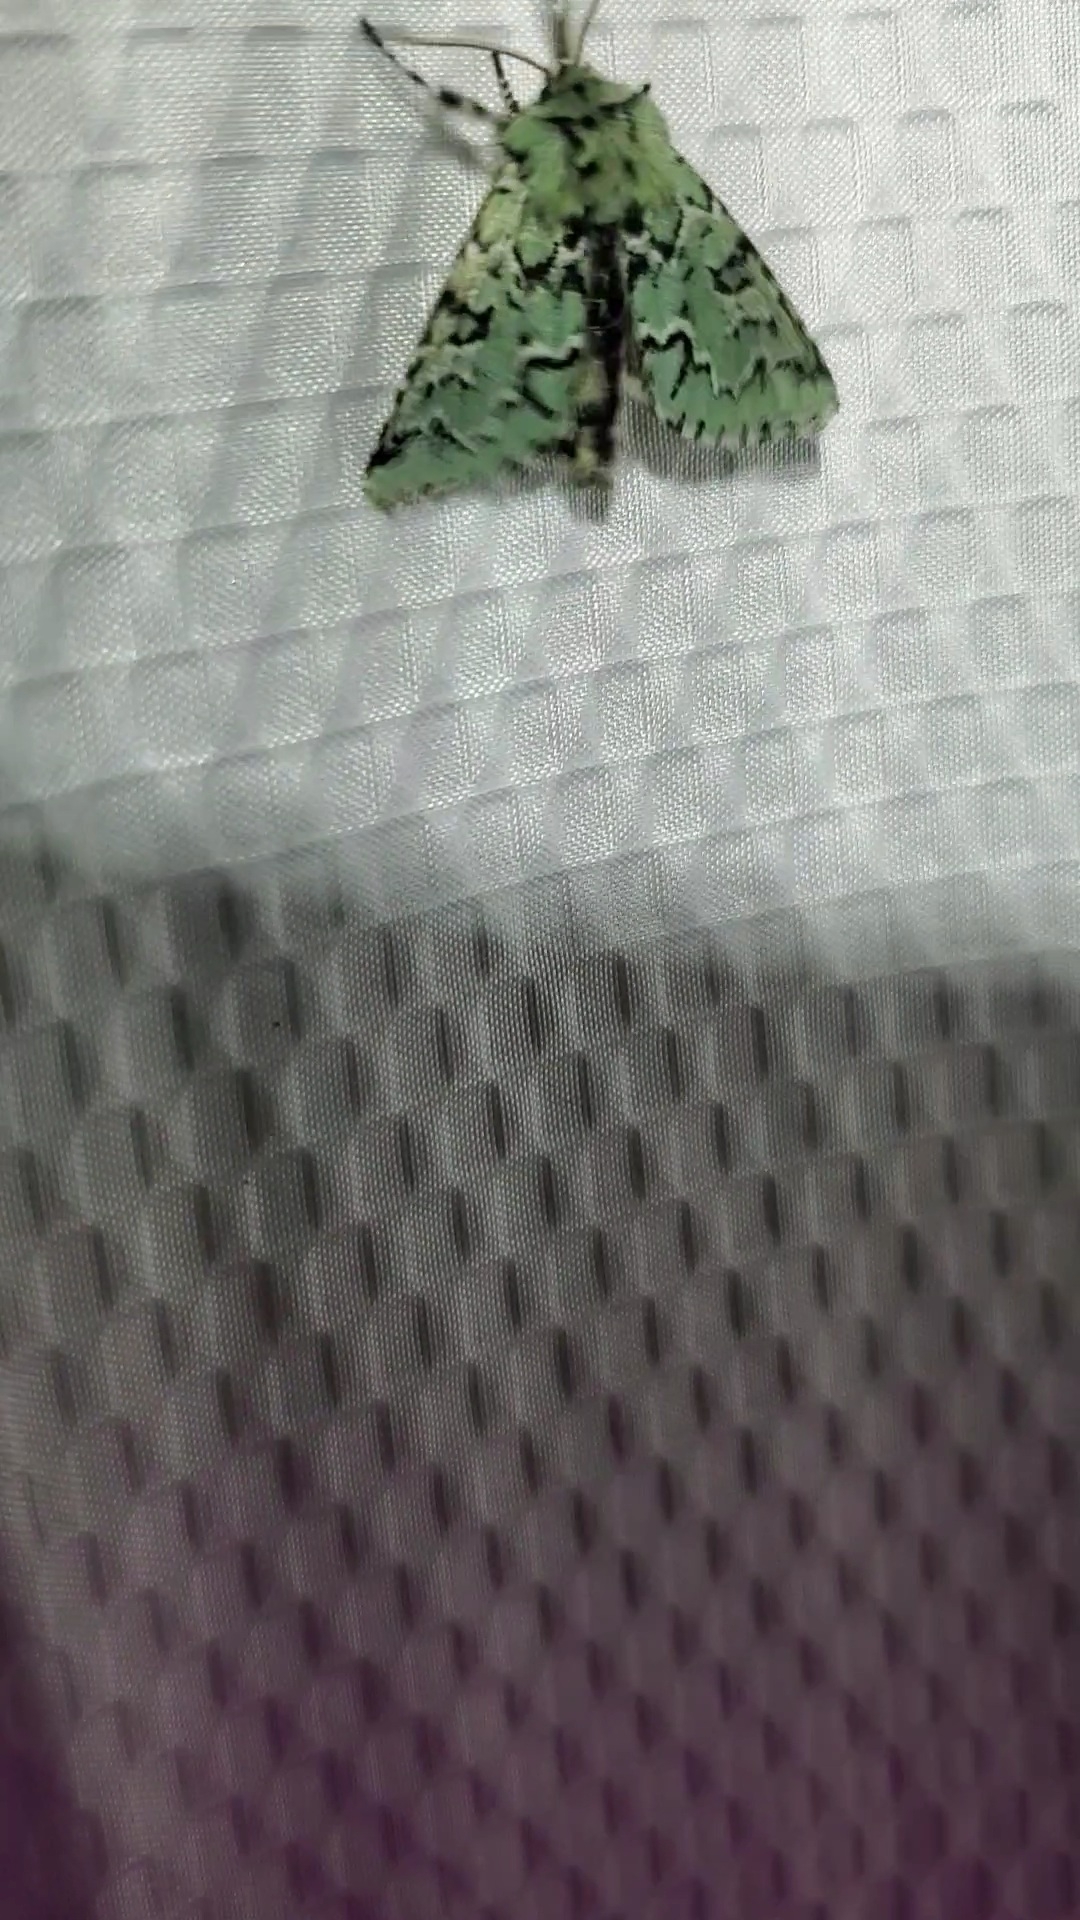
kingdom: Animalia
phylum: Arthropoda
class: Insecta
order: Lepidoptera
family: Noctuidae
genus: Feralia
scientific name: Feralia deceptiva
